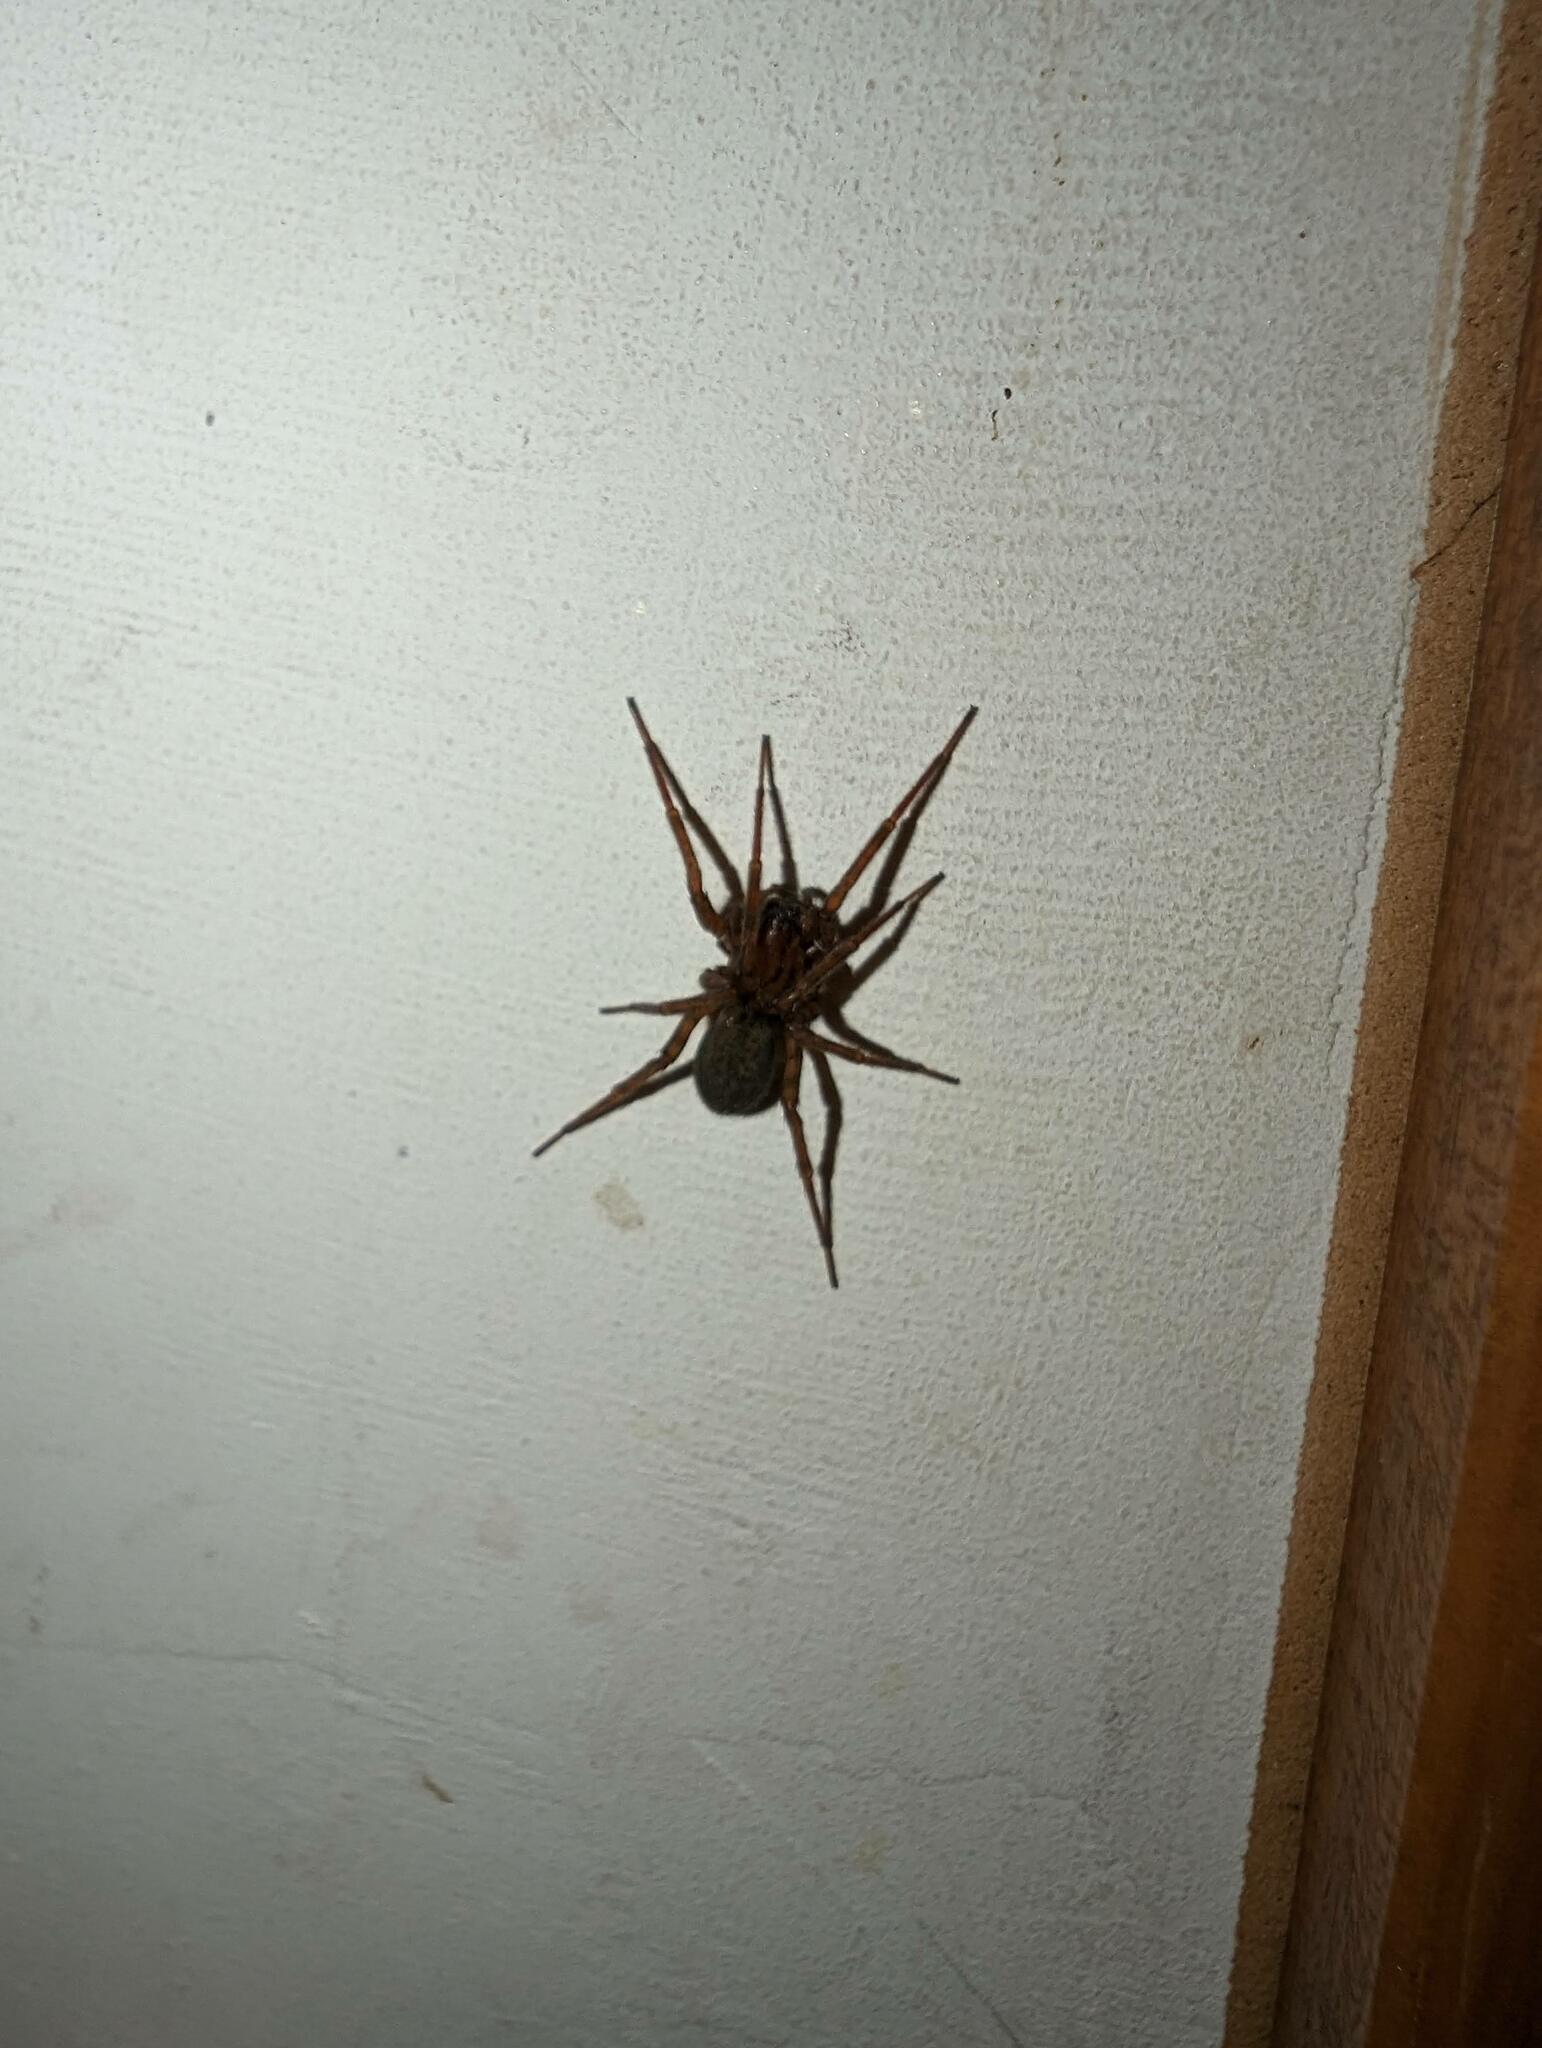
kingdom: Animalia
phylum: Arthropoda
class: Arachnida
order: Araneae
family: Agelenidae
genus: Coras
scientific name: Coras
